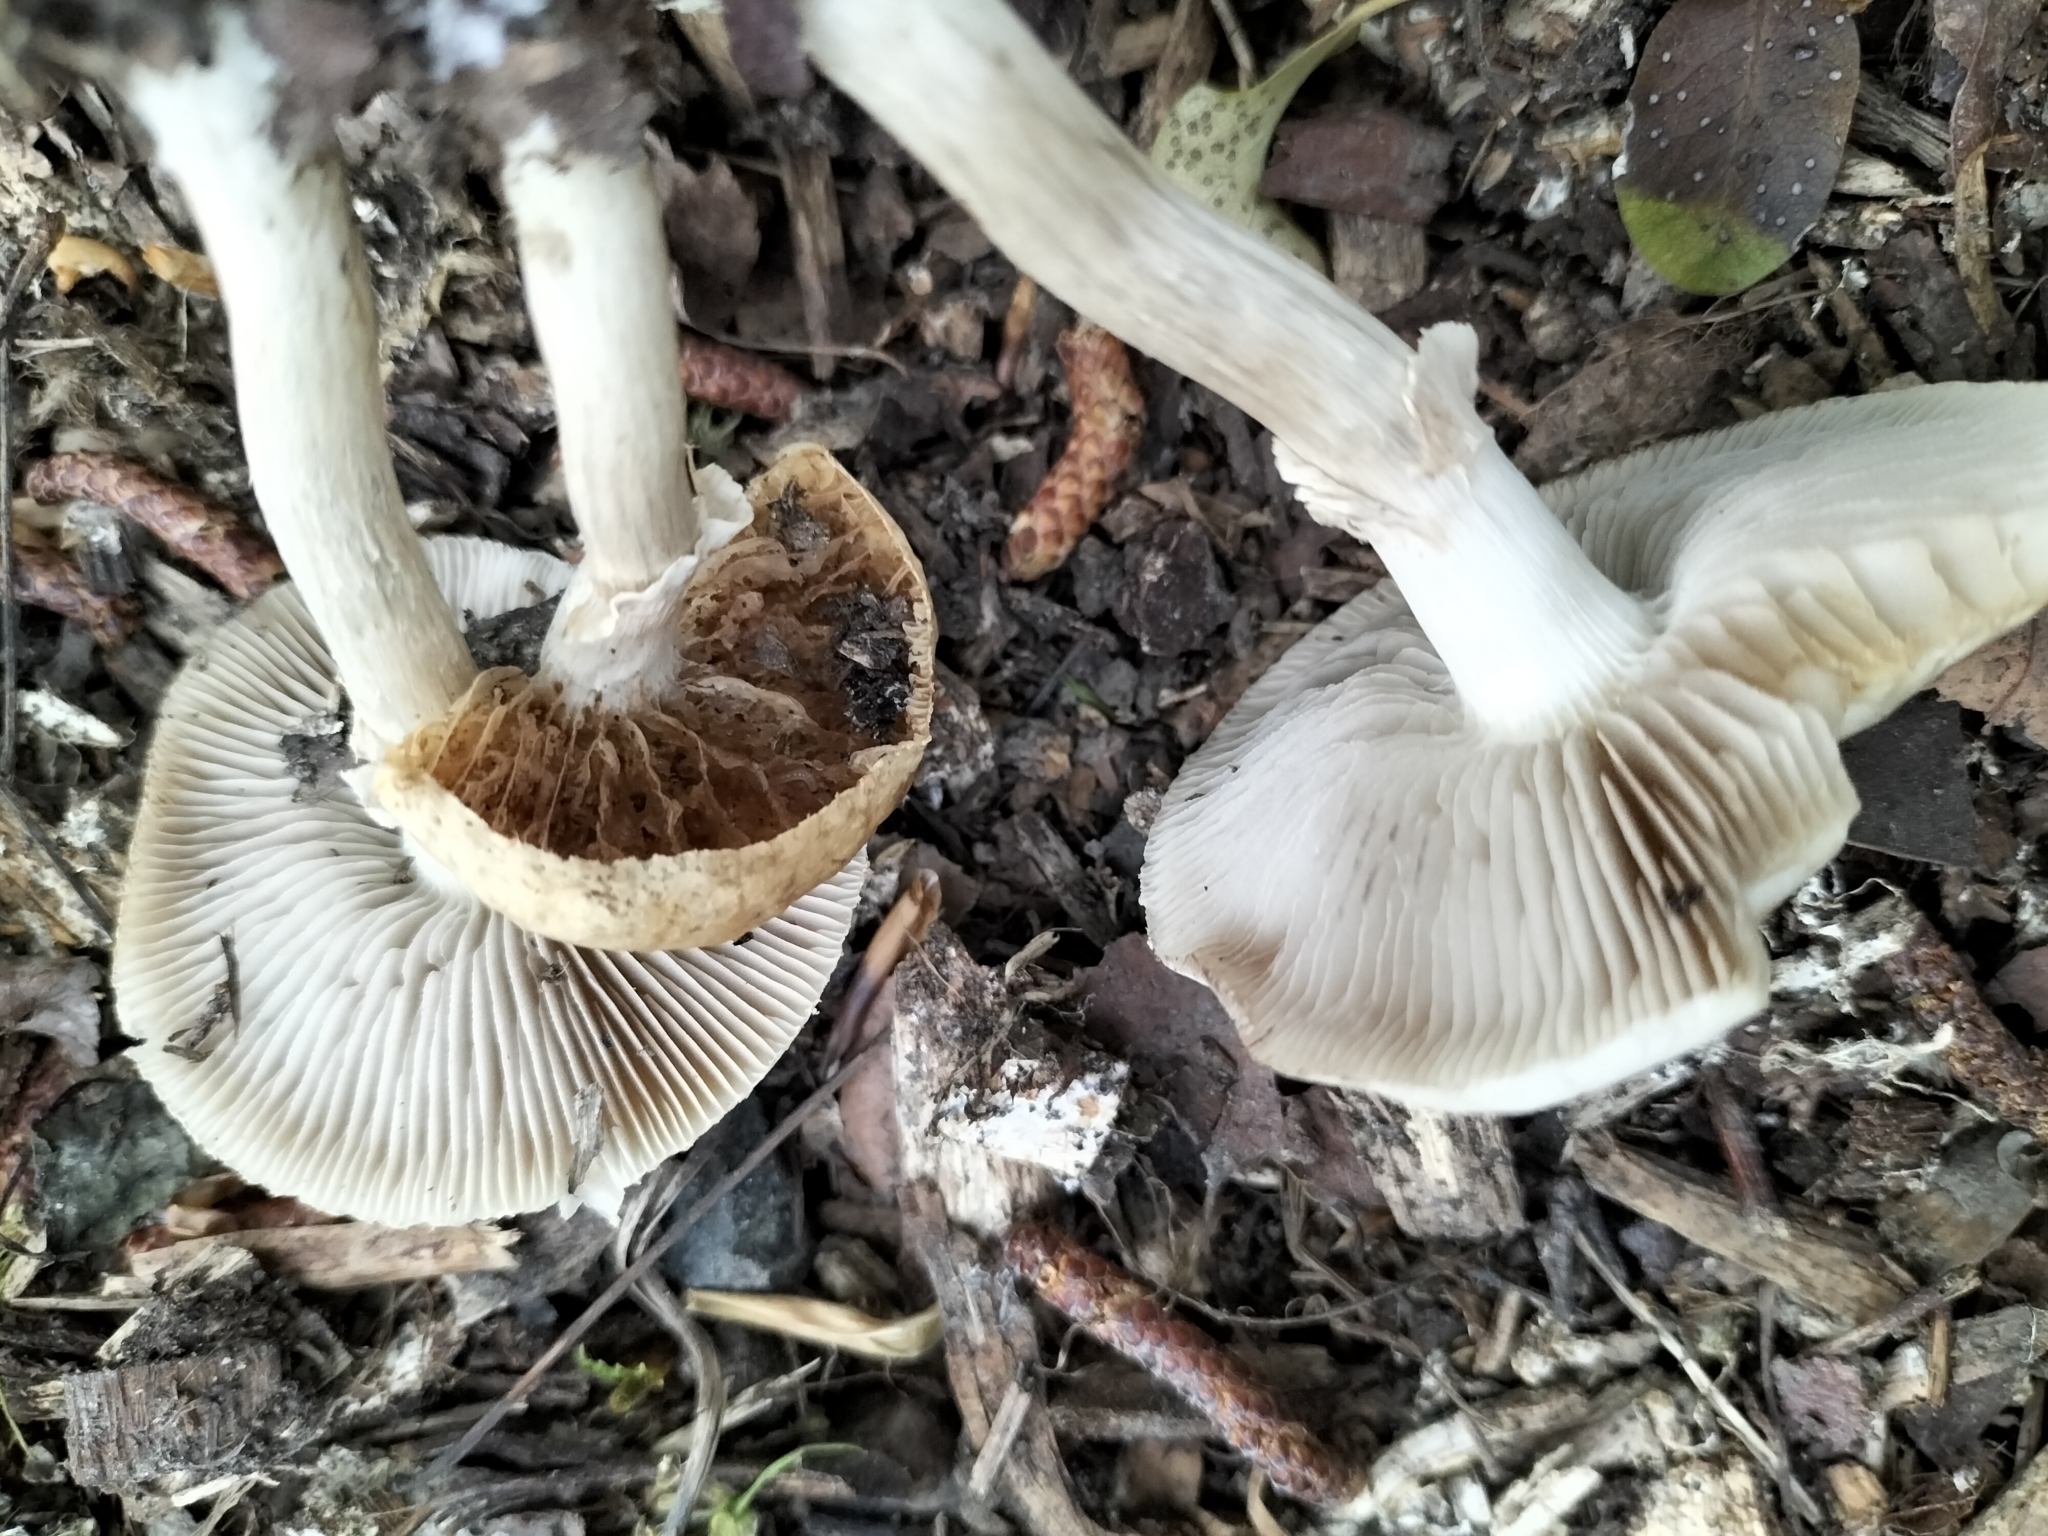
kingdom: Fungi
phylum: Basidiomycota
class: Agaricomycetes
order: Agaricales
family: Strophariaceae
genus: Agrocybe
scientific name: Agrocybe praecox
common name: Spring fieldcap
